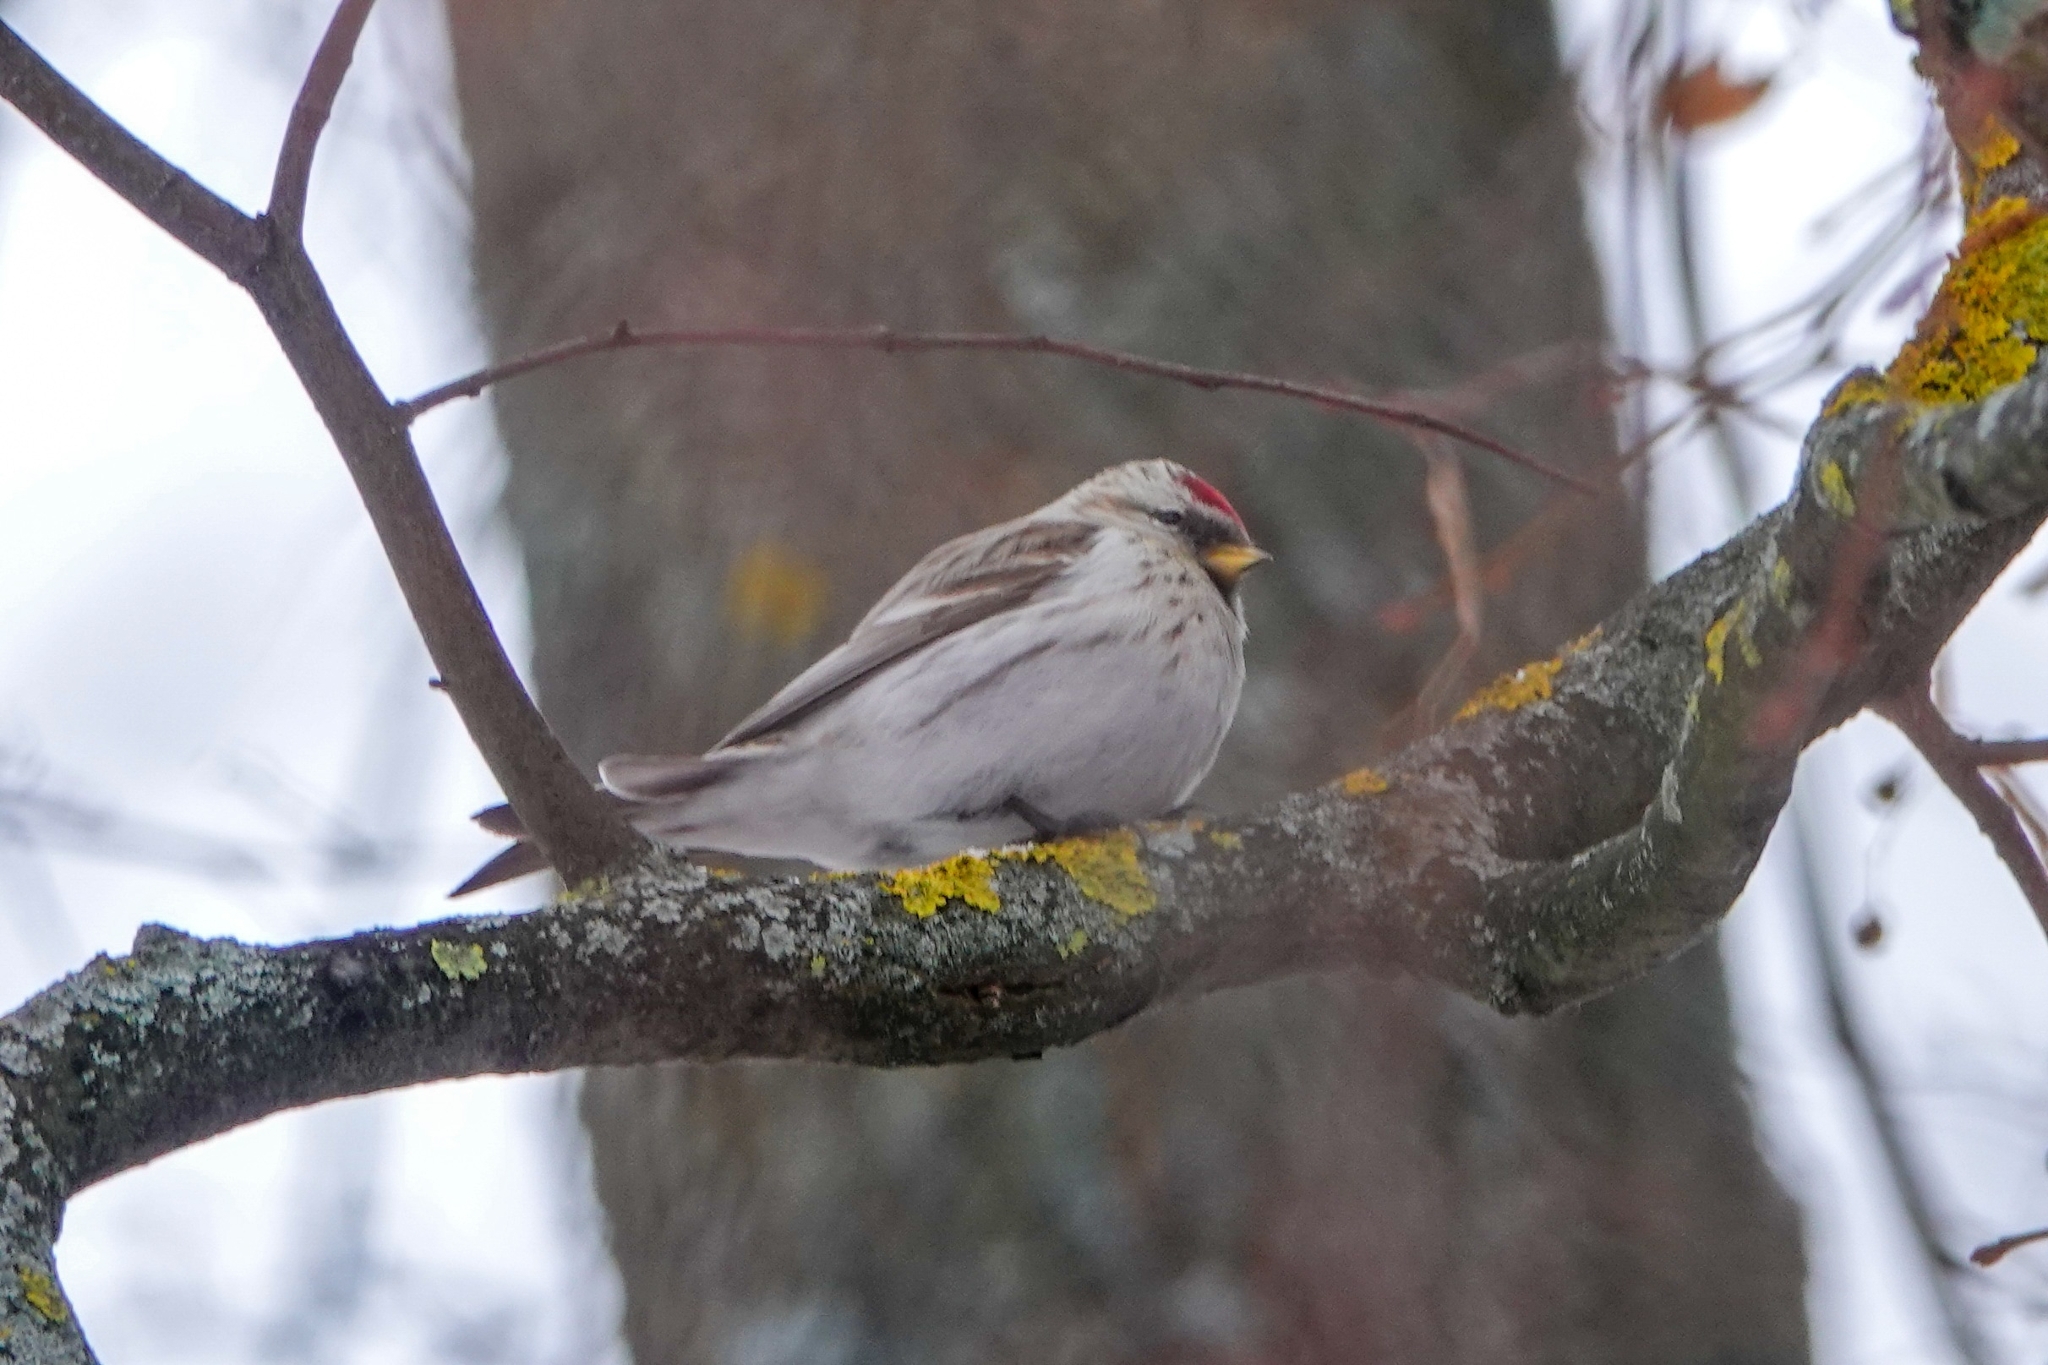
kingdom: Animalia
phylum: Chordata
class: Aves
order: Passeriformes
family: Fringillidae
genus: Acanthis
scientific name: Acanthis hornemanni
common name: Arctic redpoll
